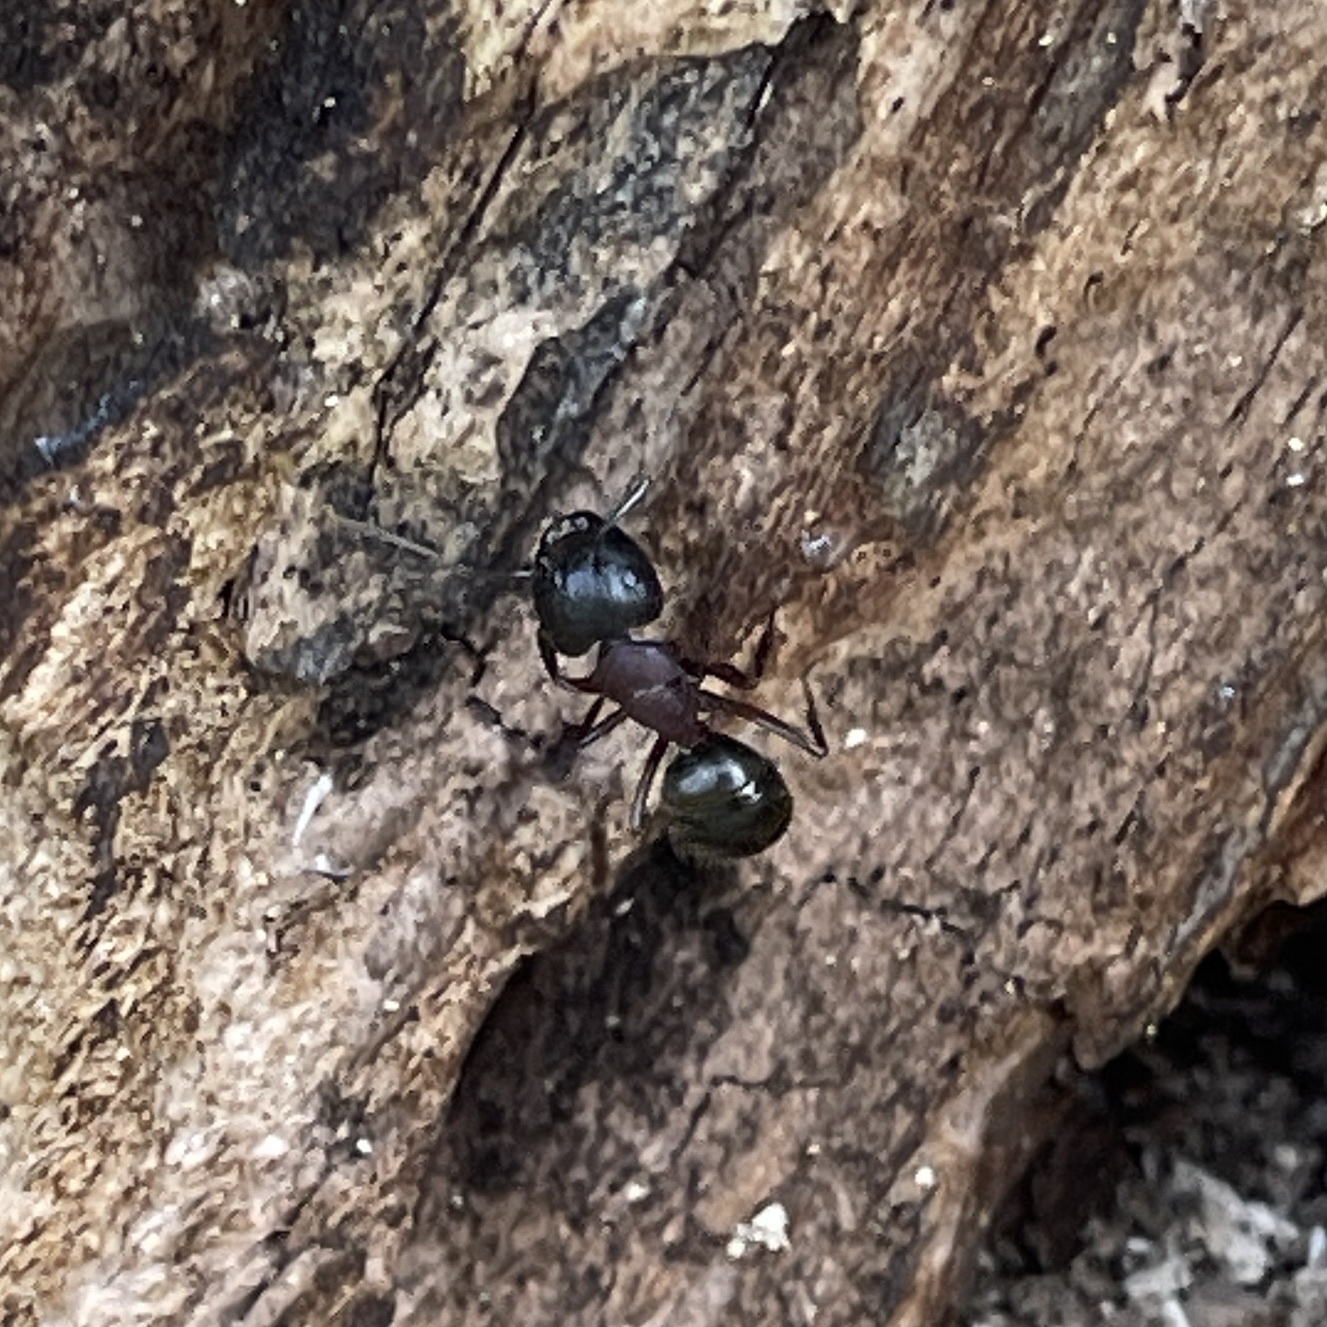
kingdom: Animalia
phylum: Arthropoda
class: Insecta
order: Hymenoptera
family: Formicidae
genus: Camponotus
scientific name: Camponotus novaeboracensis
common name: New york carpenter ant
